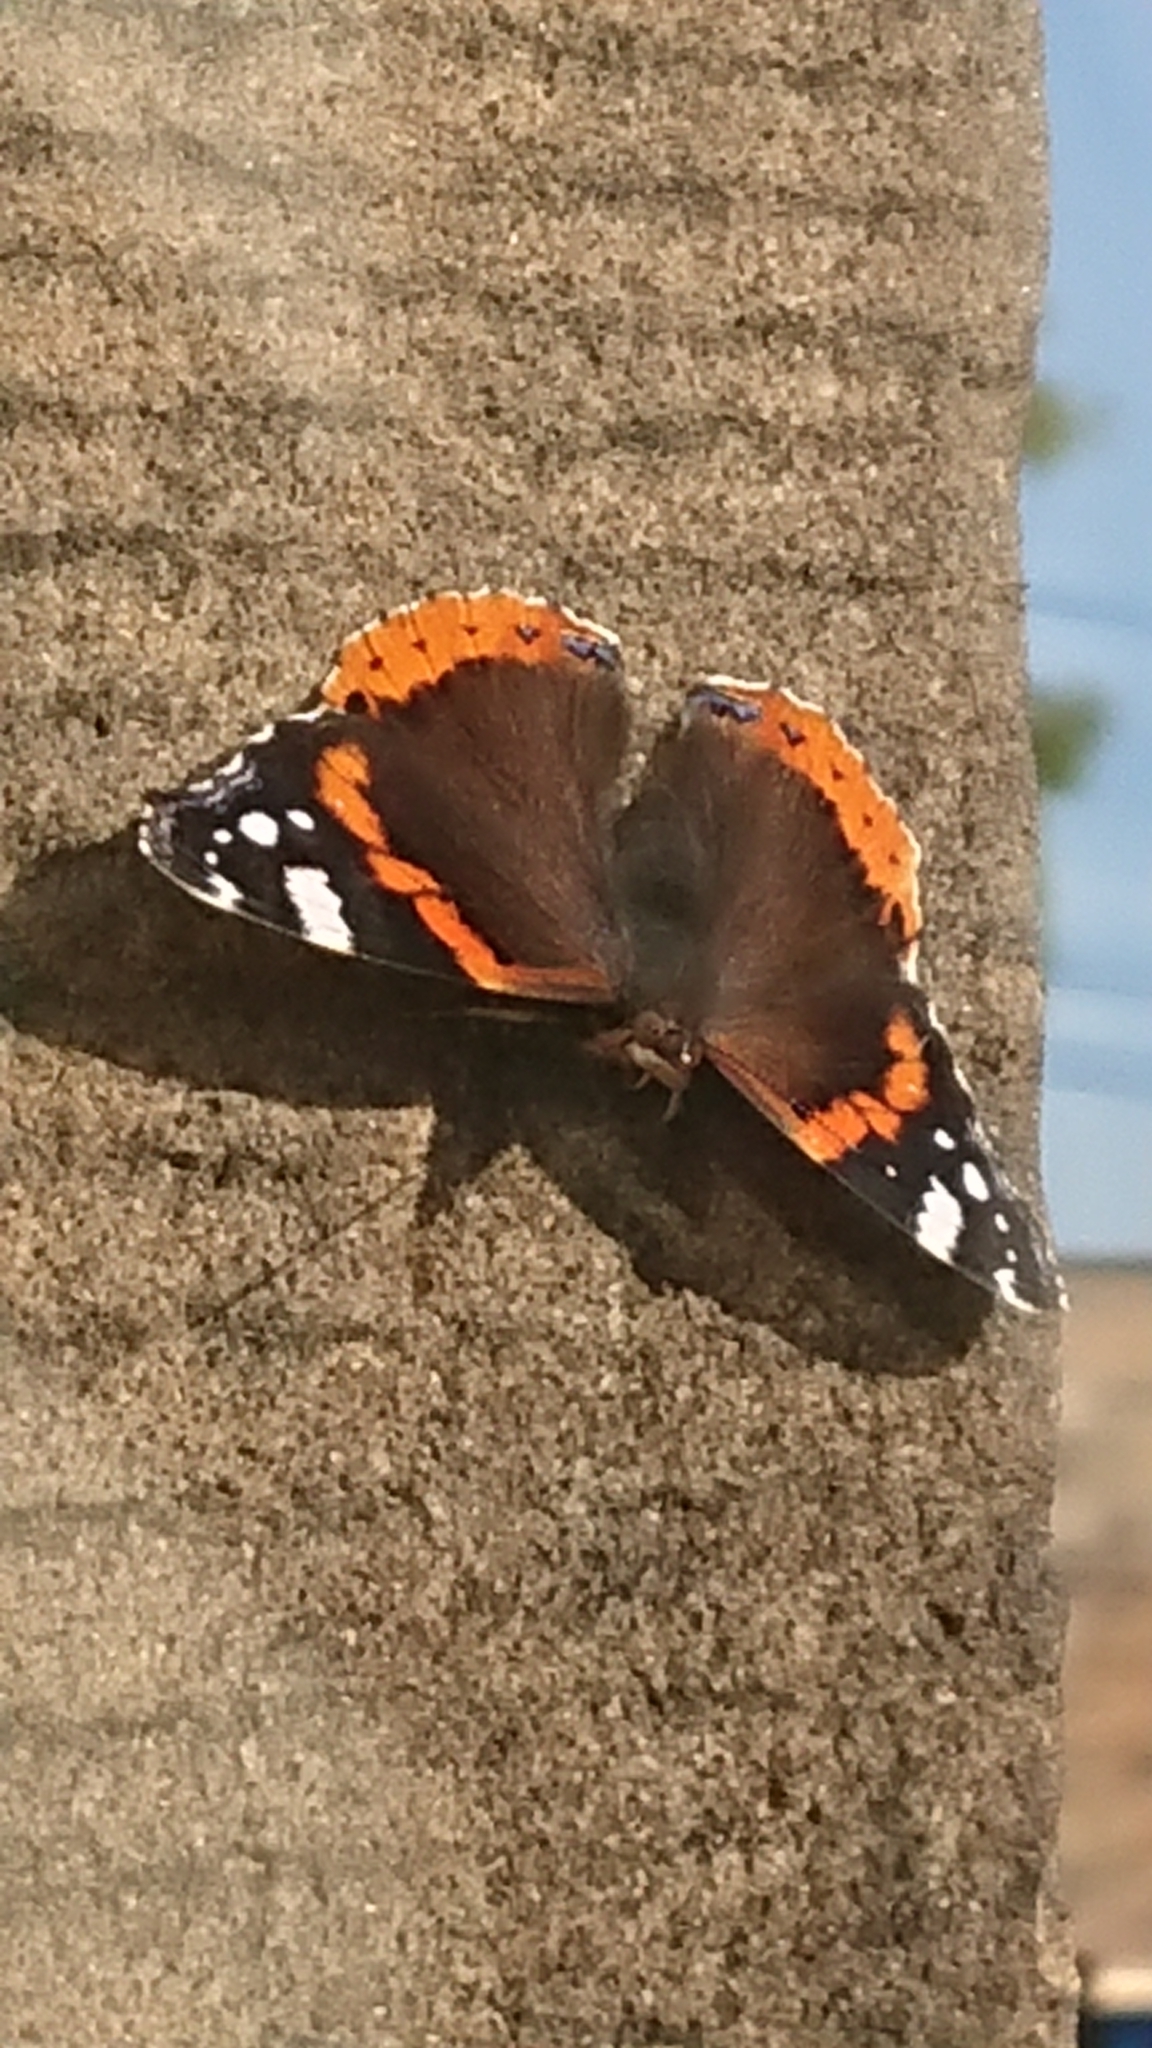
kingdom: Animalia
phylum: Arthropoda
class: Insecta
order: Lepidoptera
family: Nymphalidae
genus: Vanessa
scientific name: Vanessa atalanta
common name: Red admiral
